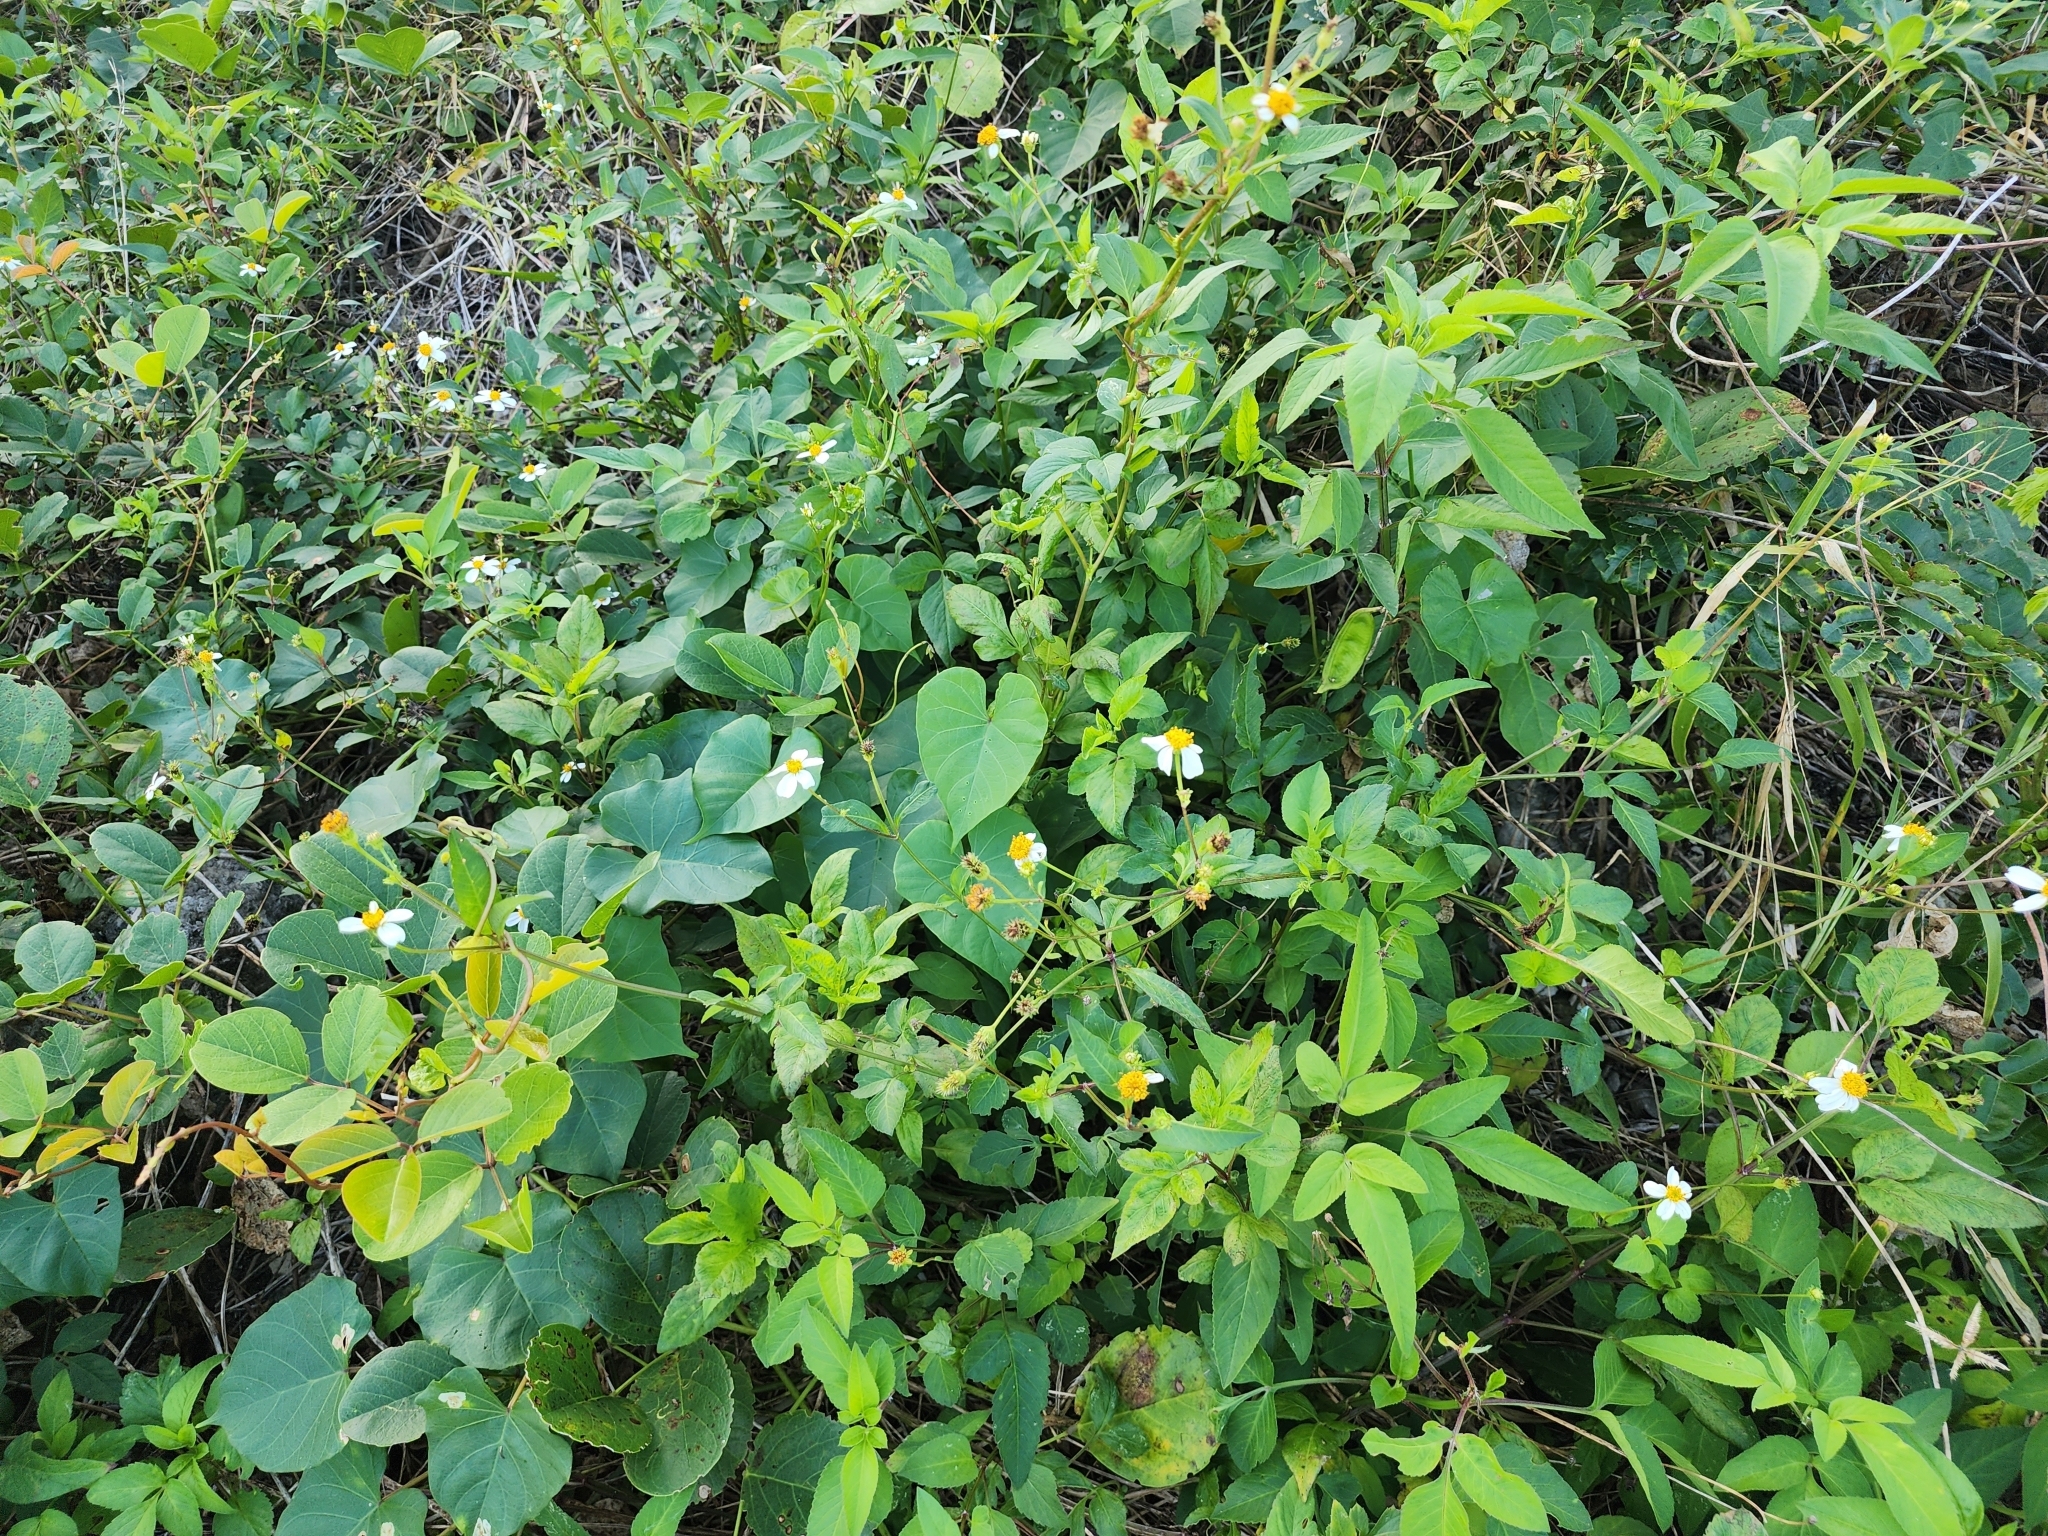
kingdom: Plantae
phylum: Tracheophyta
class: Magnoliopsida
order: Asterales
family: Asteraceae
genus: Bidens
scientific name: Bidens alba
